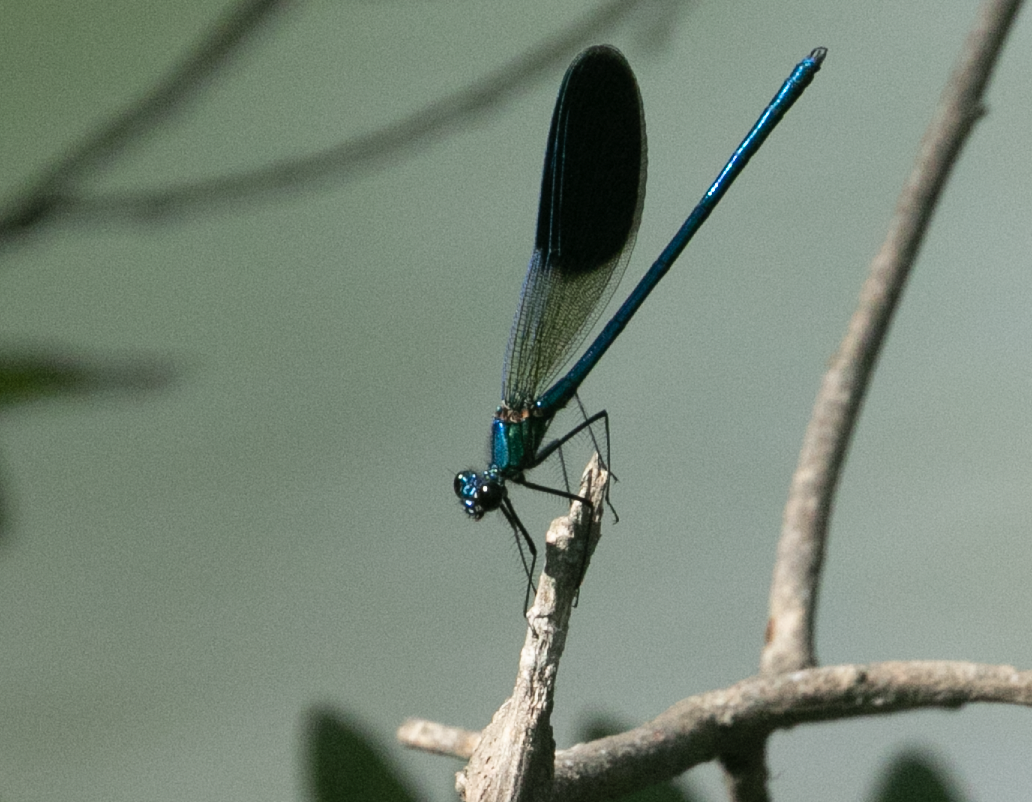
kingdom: Animalia
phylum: Arthropoda
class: Insecta
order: Odonata
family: Calopterygidae
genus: Calopteryx
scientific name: Calopteryx splendens
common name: Banded demoiselle
